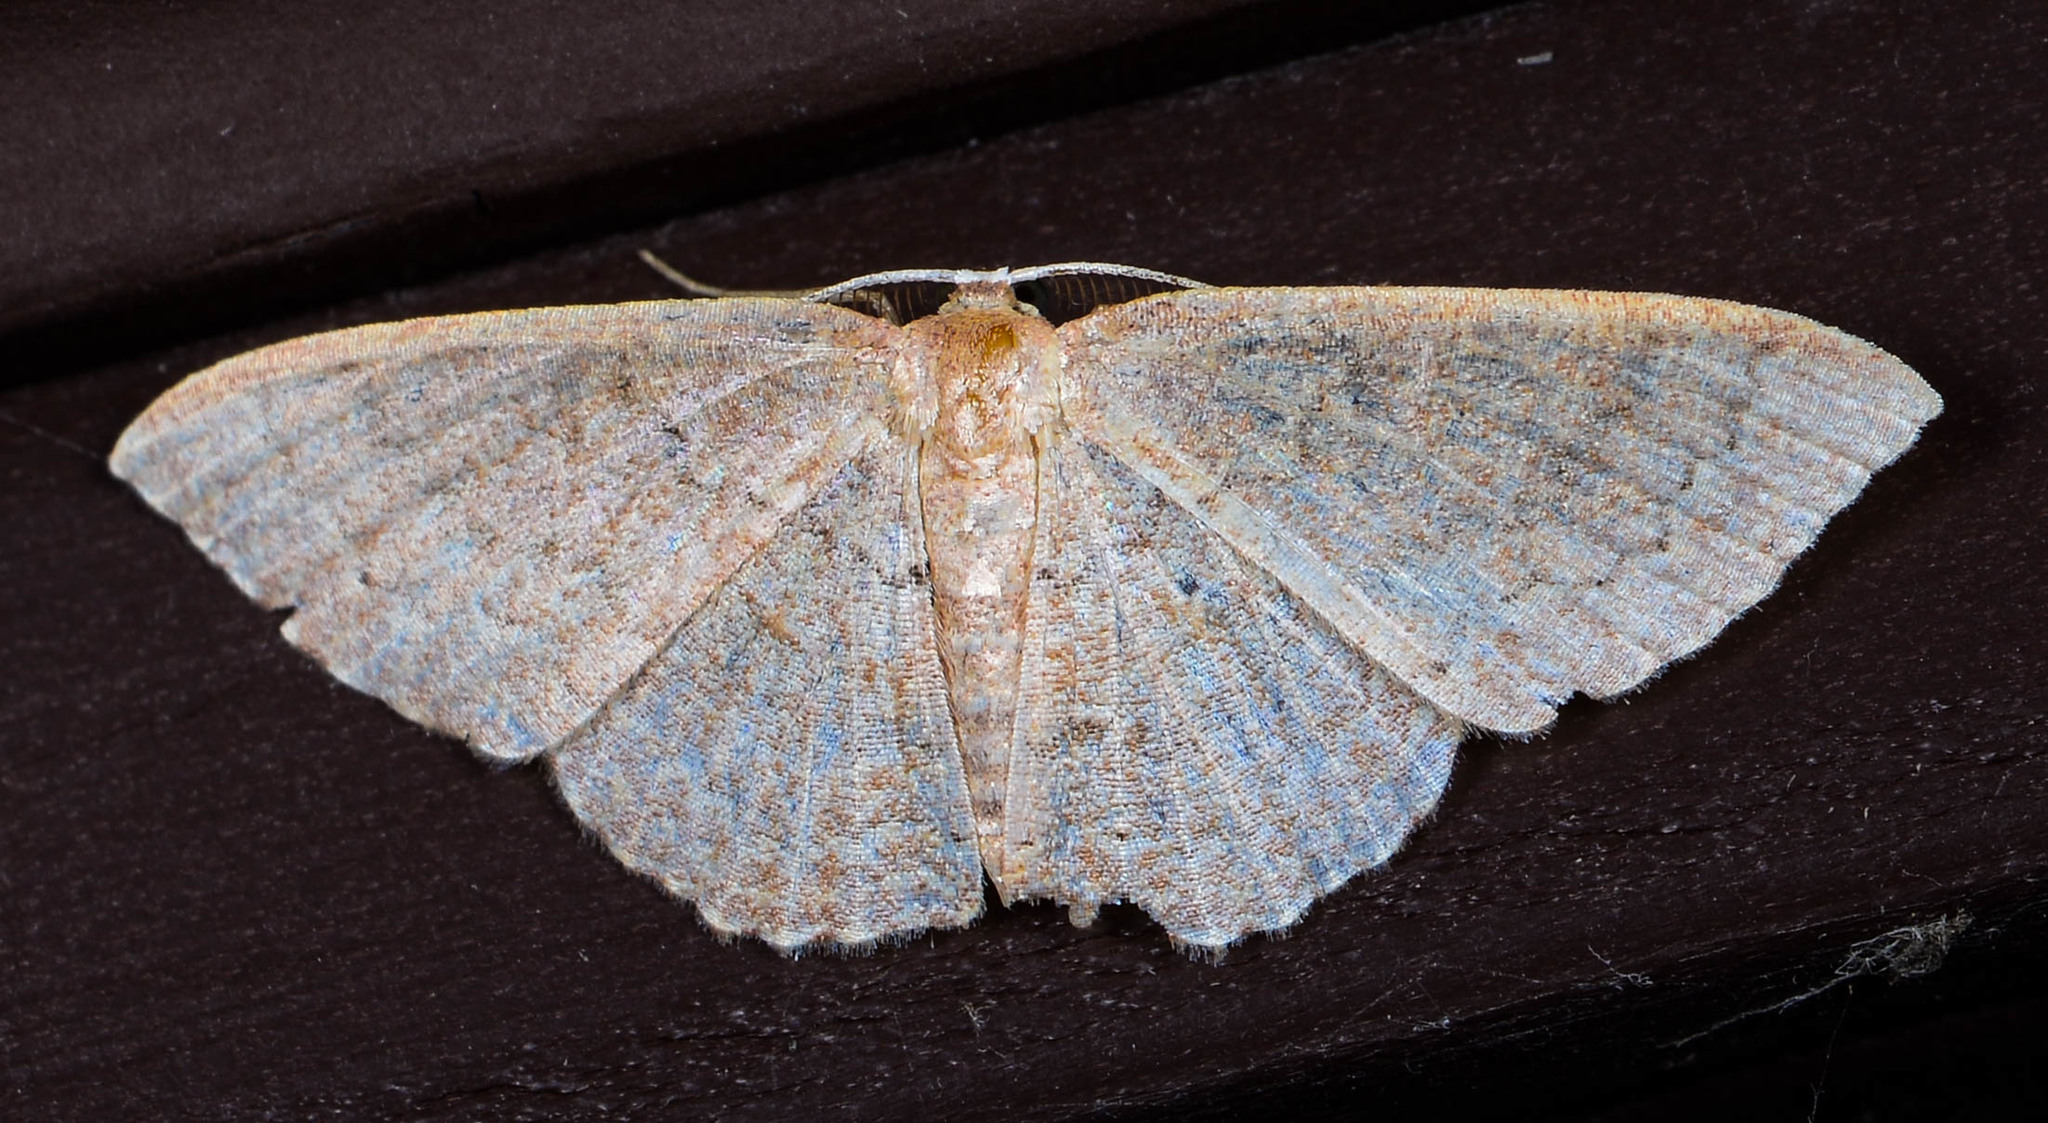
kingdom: Animalia
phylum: Arthropoda
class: Insecta
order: Lepidoptera
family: Geometridae
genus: Pleuroprucha
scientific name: Pleuroprucha insulsaria
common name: Common tan wave
